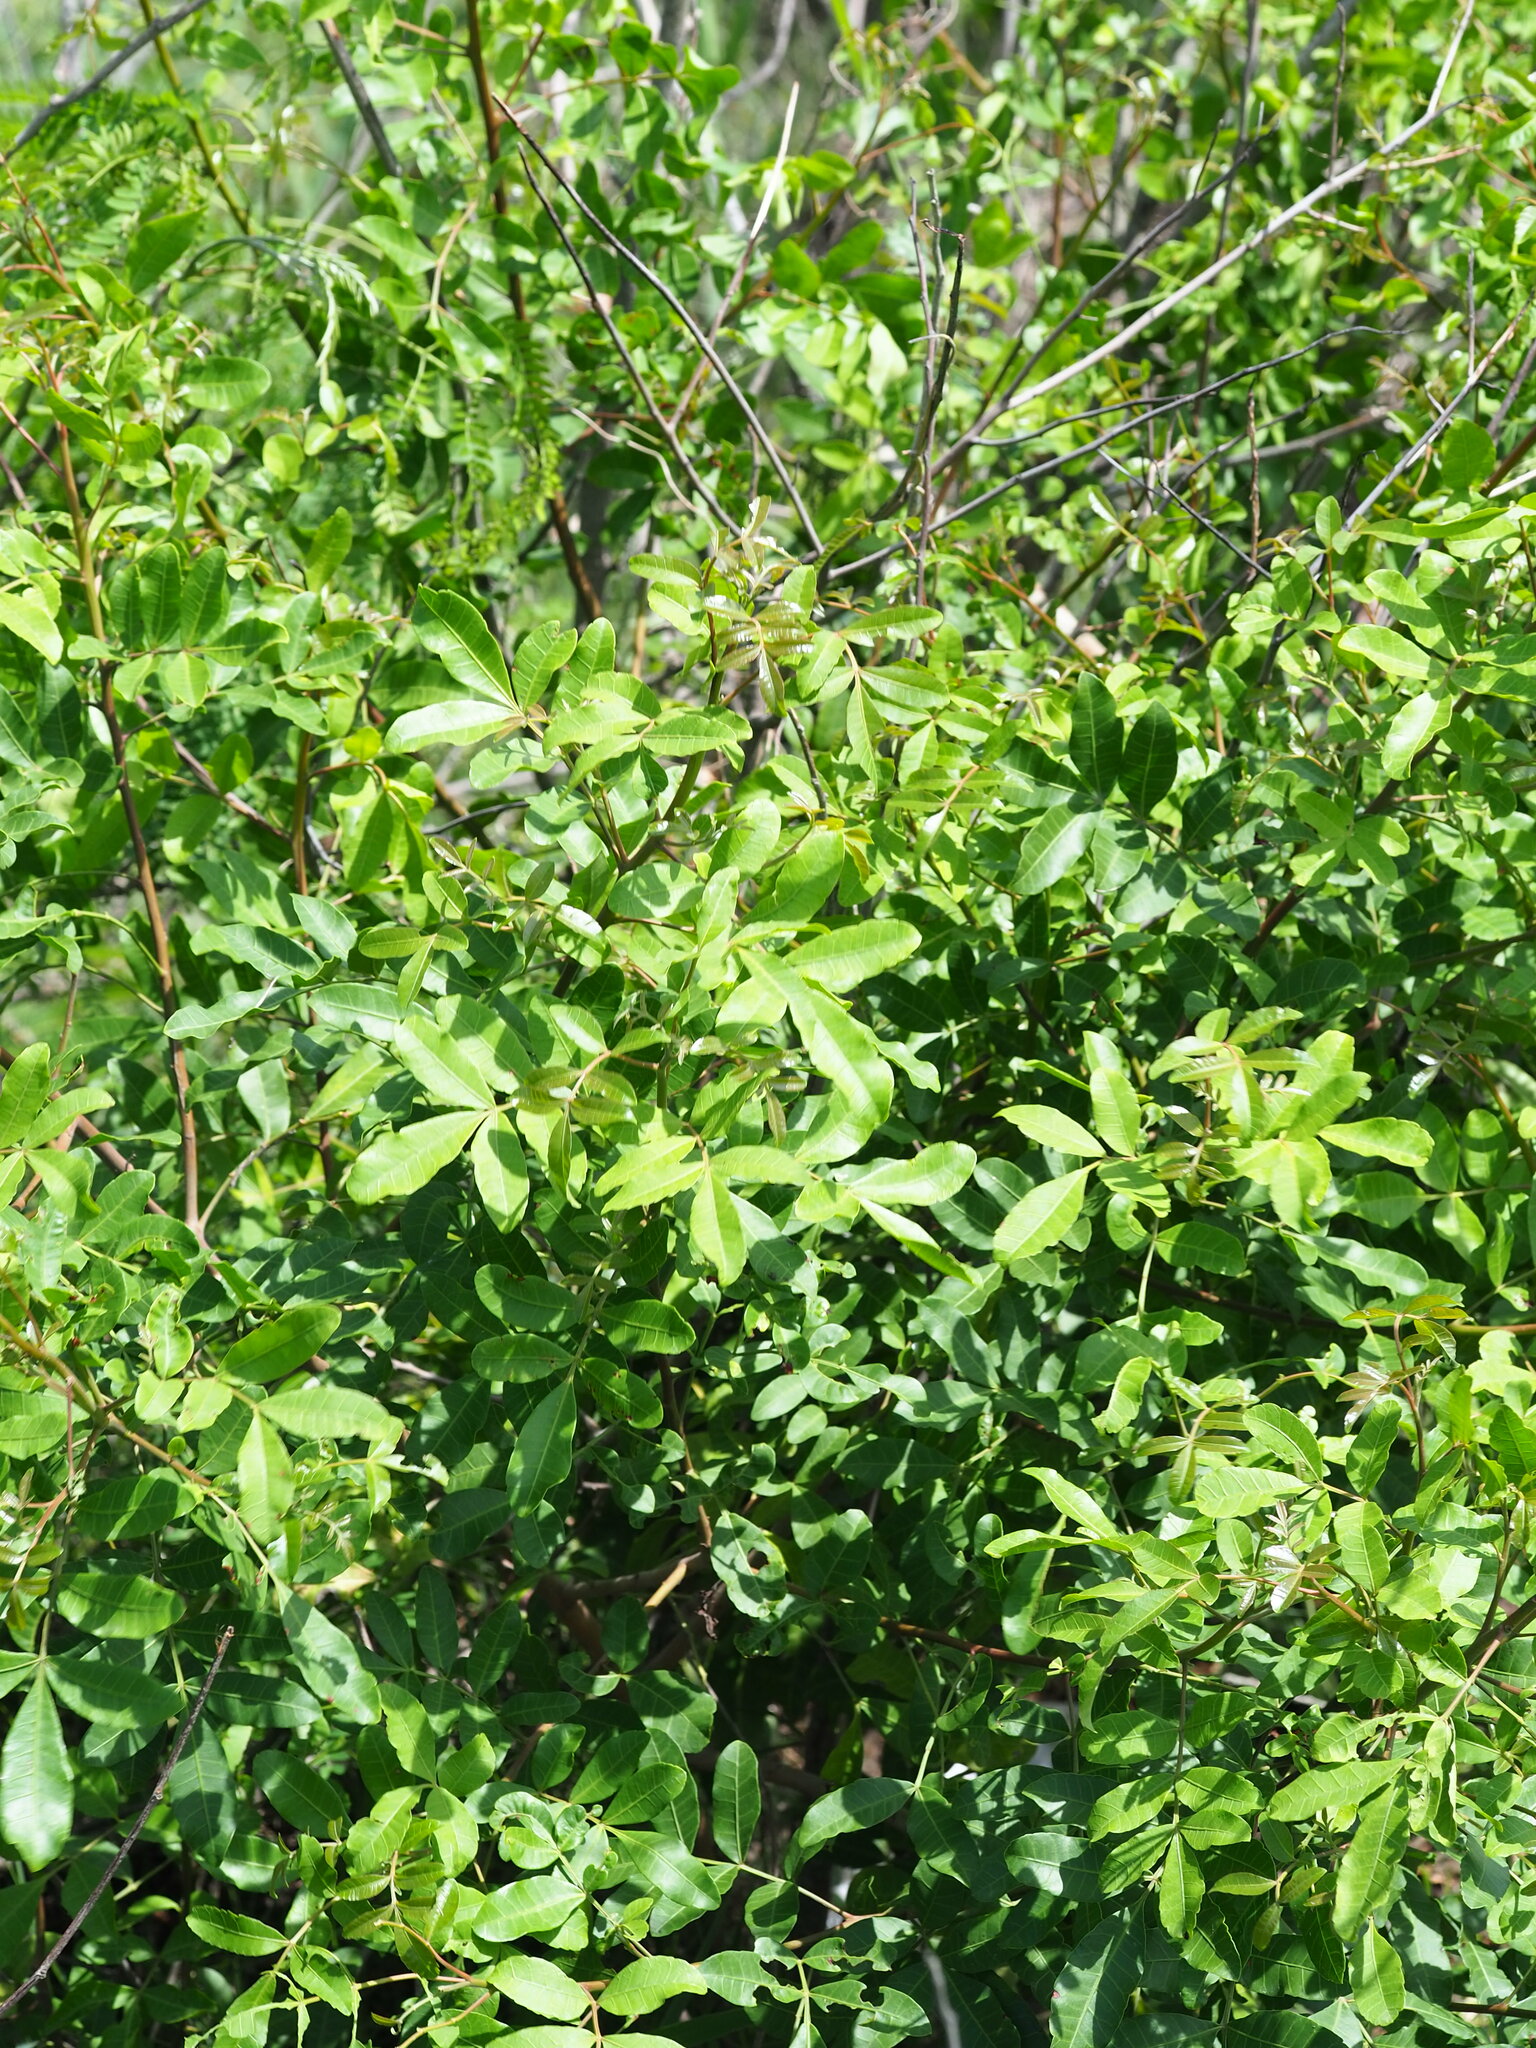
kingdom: Plantae
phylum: Tracheophyta
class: Magnoliopsida
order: Sapindales
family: Anacardiaceae
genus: Schinus
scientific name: Schinus terebinthifolia
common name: Brazilian peppertree
